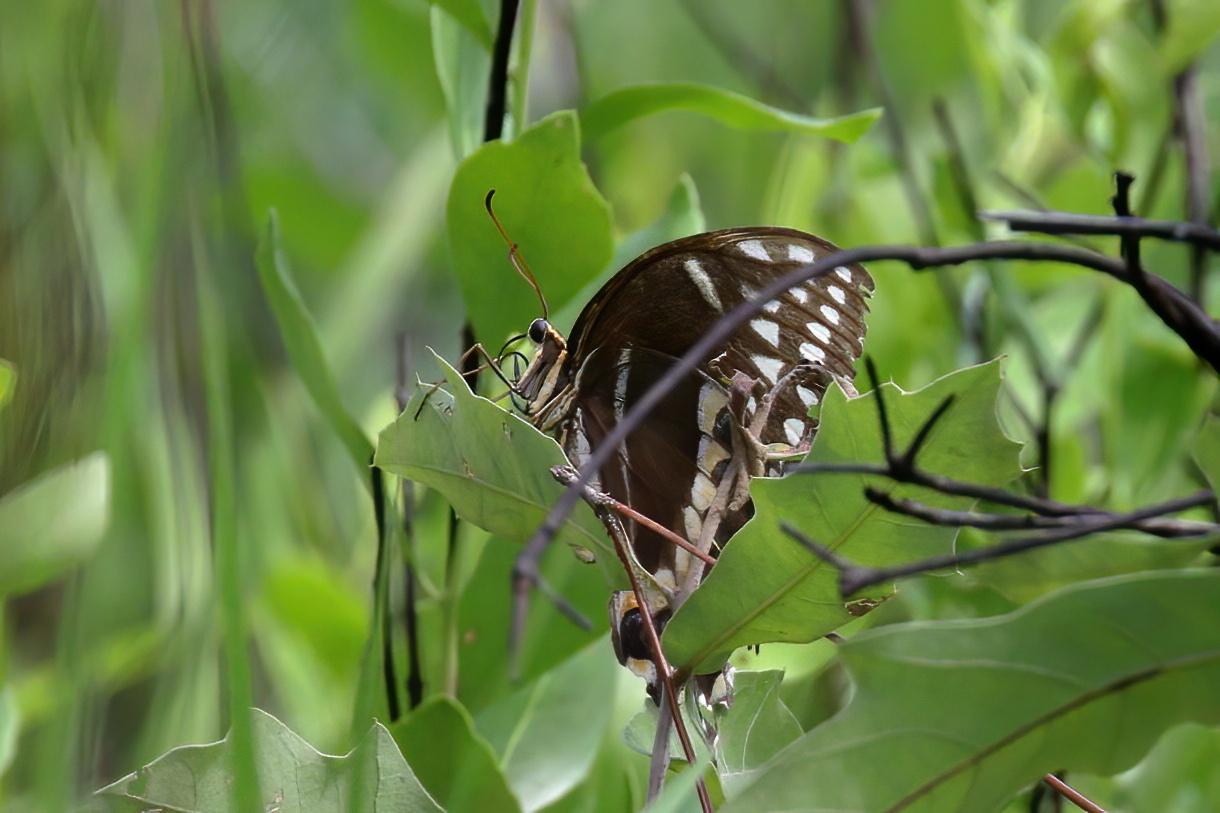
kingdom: Animalia
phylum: Arthropoda
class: Insecta
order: Lepidoptera
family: Papilionidae
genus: Papilio
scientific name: Papilio palamedes
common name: Palamedes swallowtail
